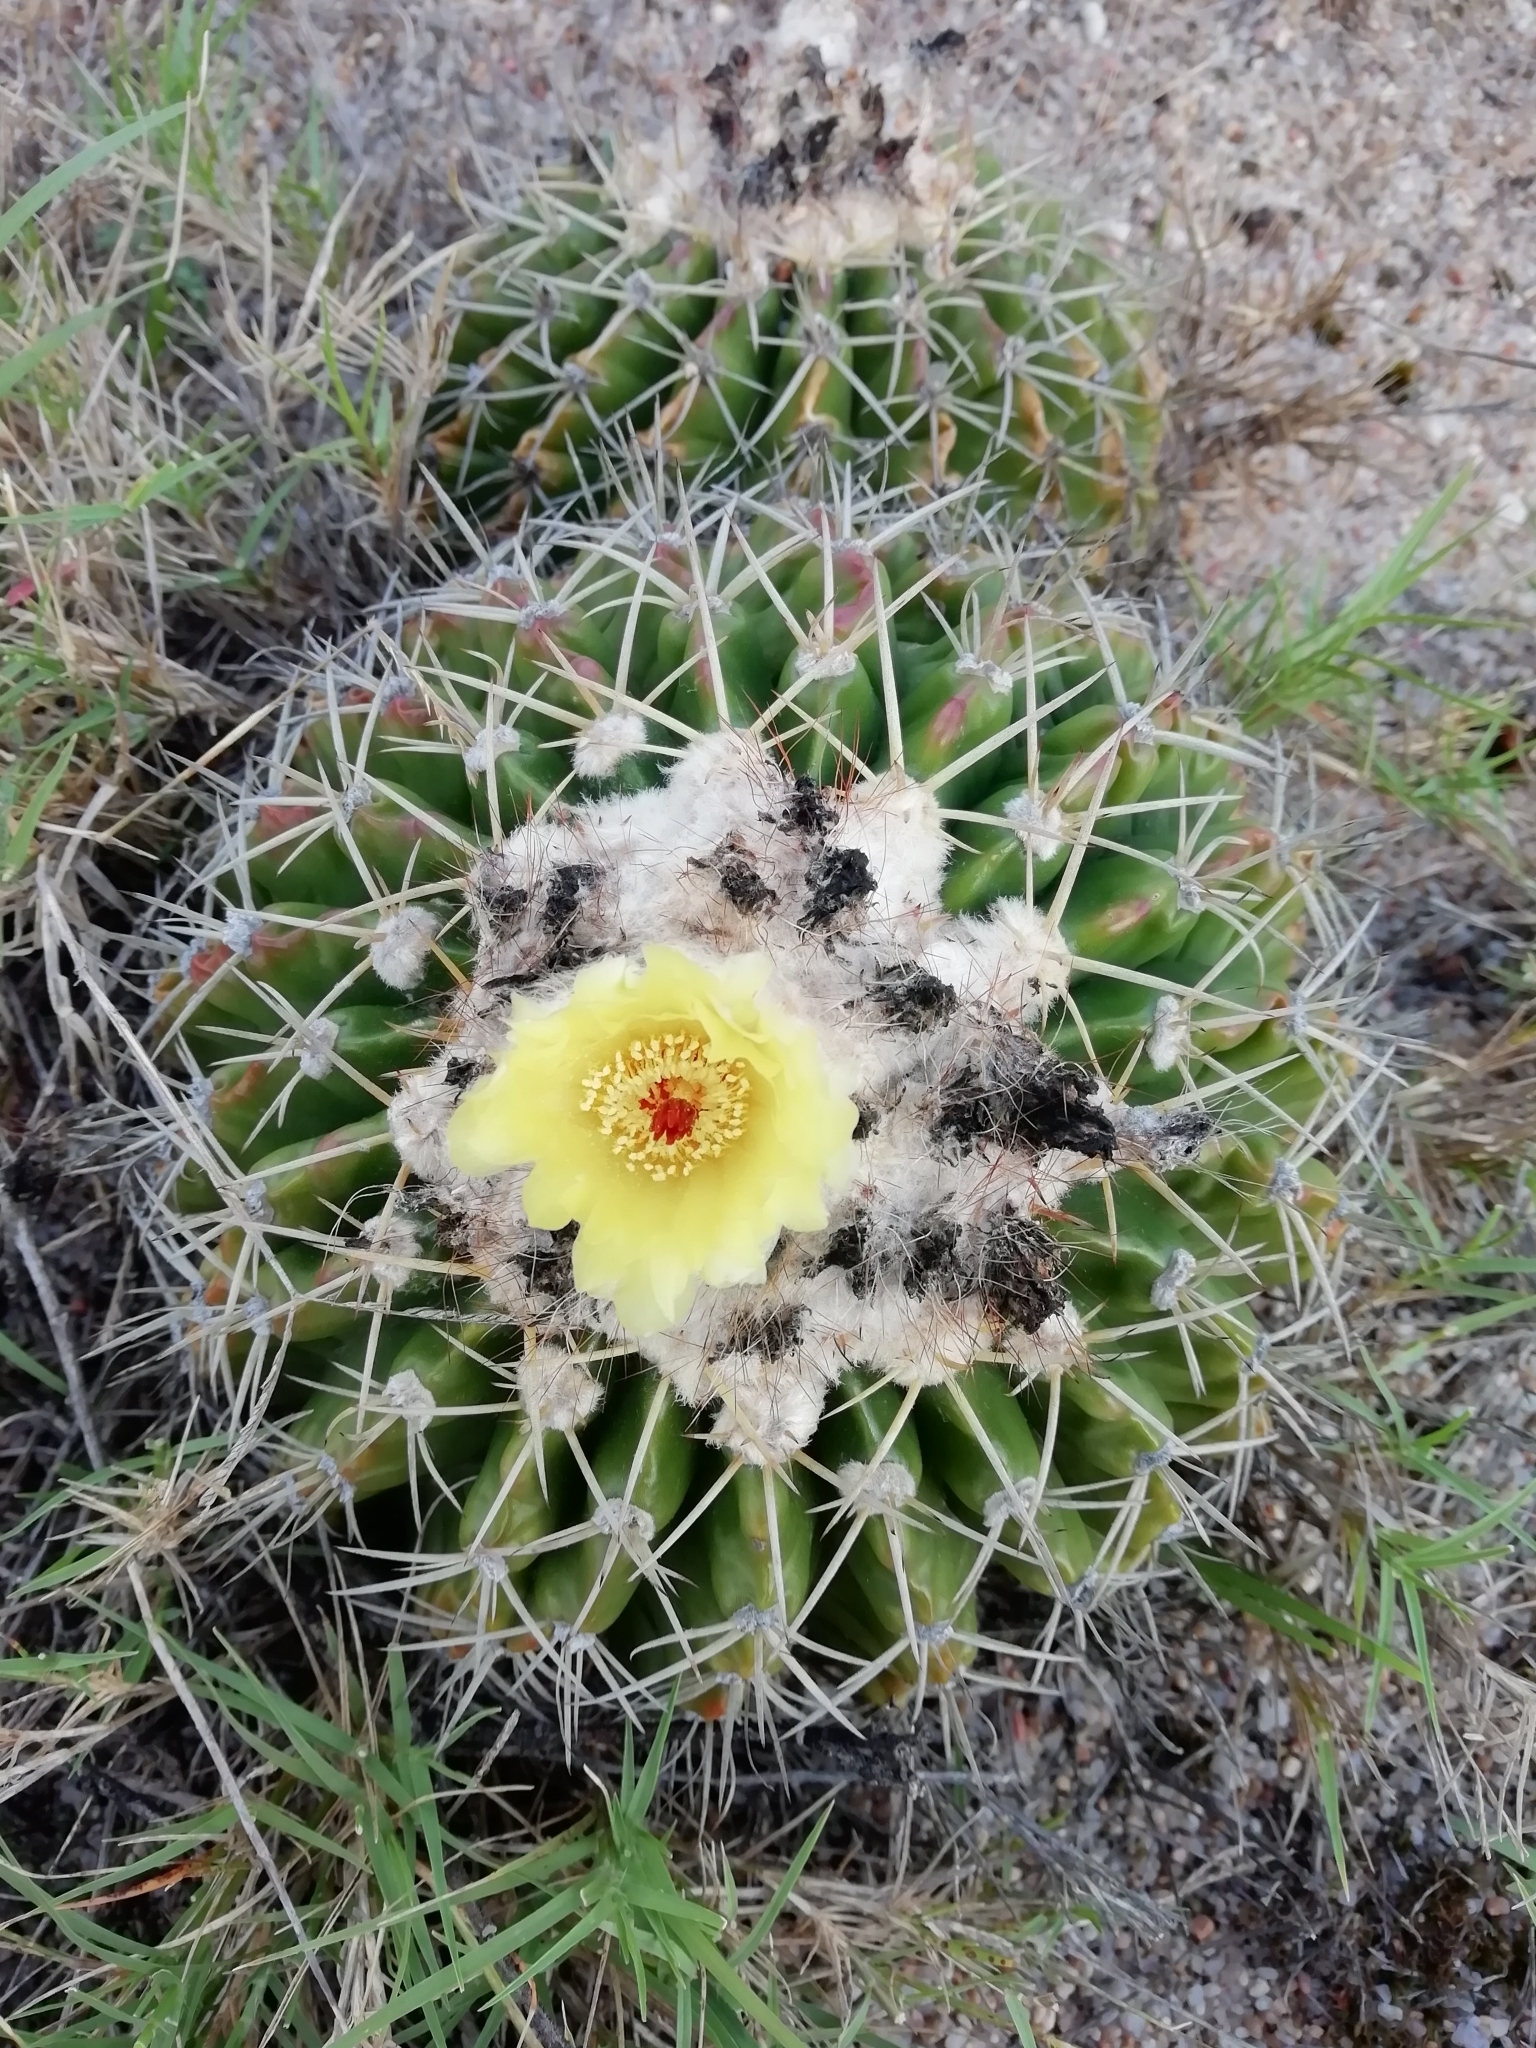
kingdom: Plantae
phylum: Tracheophyta
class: Magnoliopsida
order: Caryophyllales
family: Cactaceae
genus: Parodia
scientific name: Parodia erinacea
